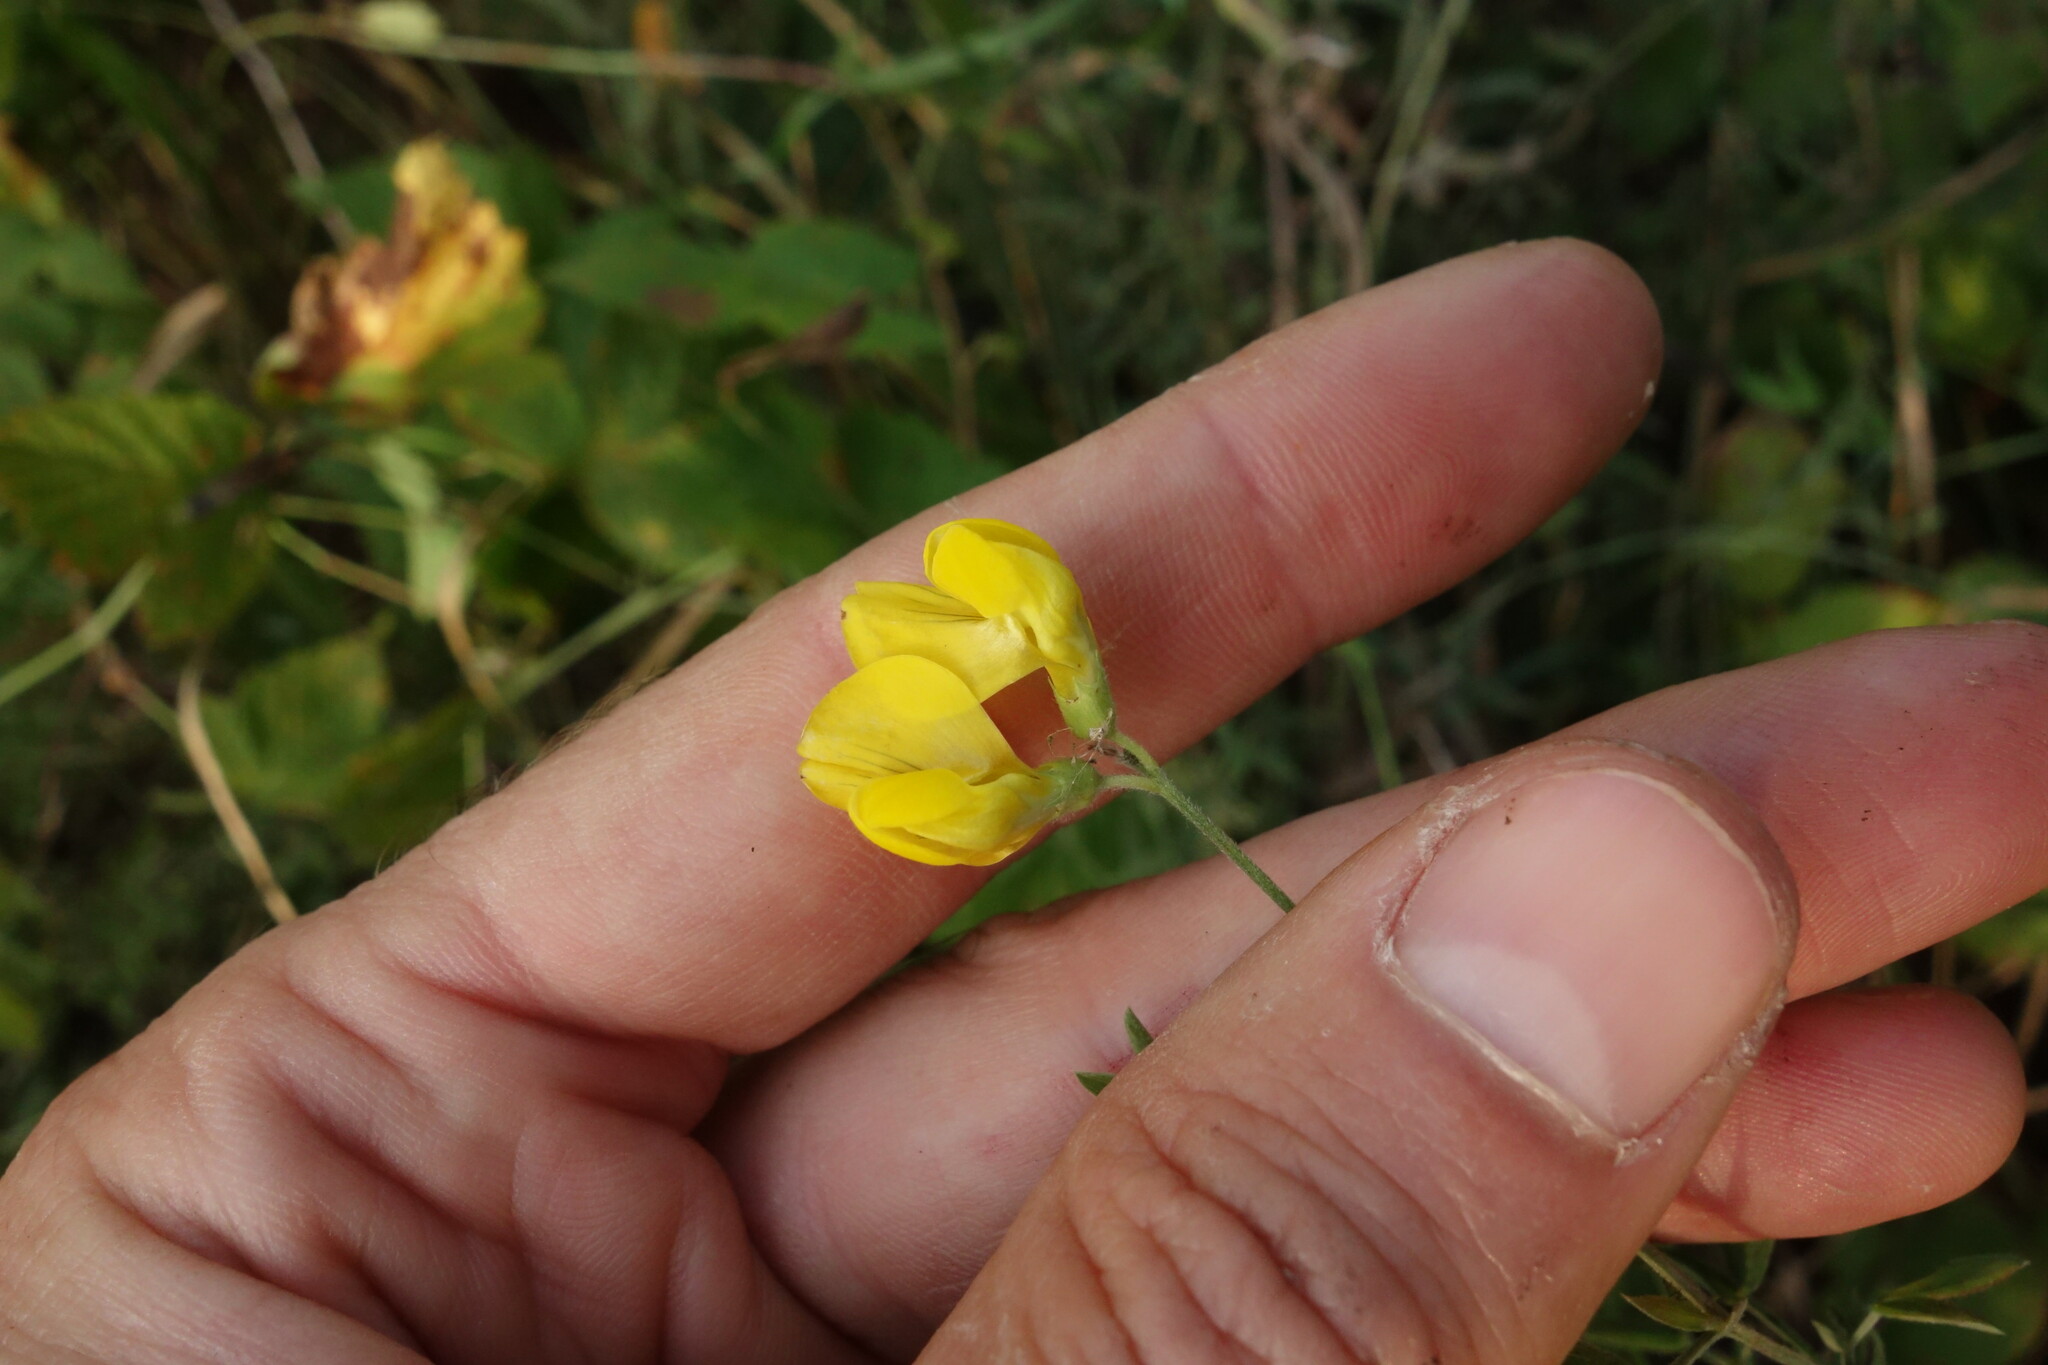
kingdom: Plantae
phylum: Tracheophyta
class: Magnoliopsida
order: Fabales
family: Fabaceae
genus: Lathyrus
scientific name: Lathyrus pratensis
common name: Meadow vetchling
